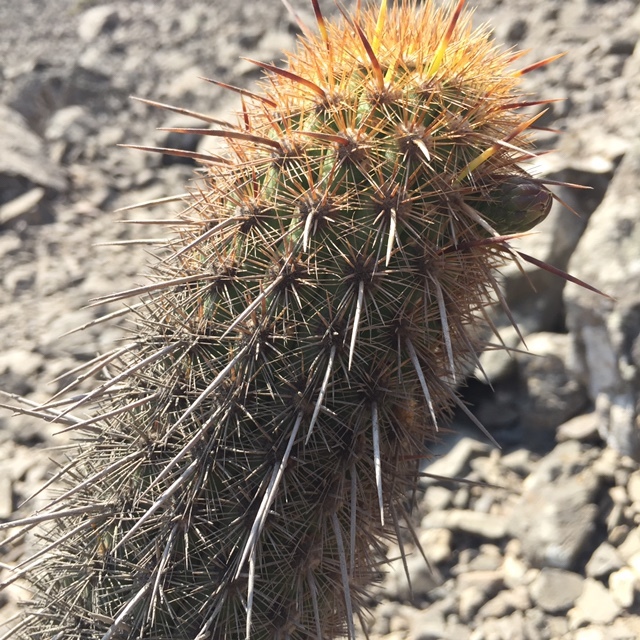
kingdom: Plantae
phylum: Tracheophyta
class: Magnoliopsida
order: Caryophyllales
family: Cactaceae
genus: Haageocereus
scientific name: Haageocereus acranthus
